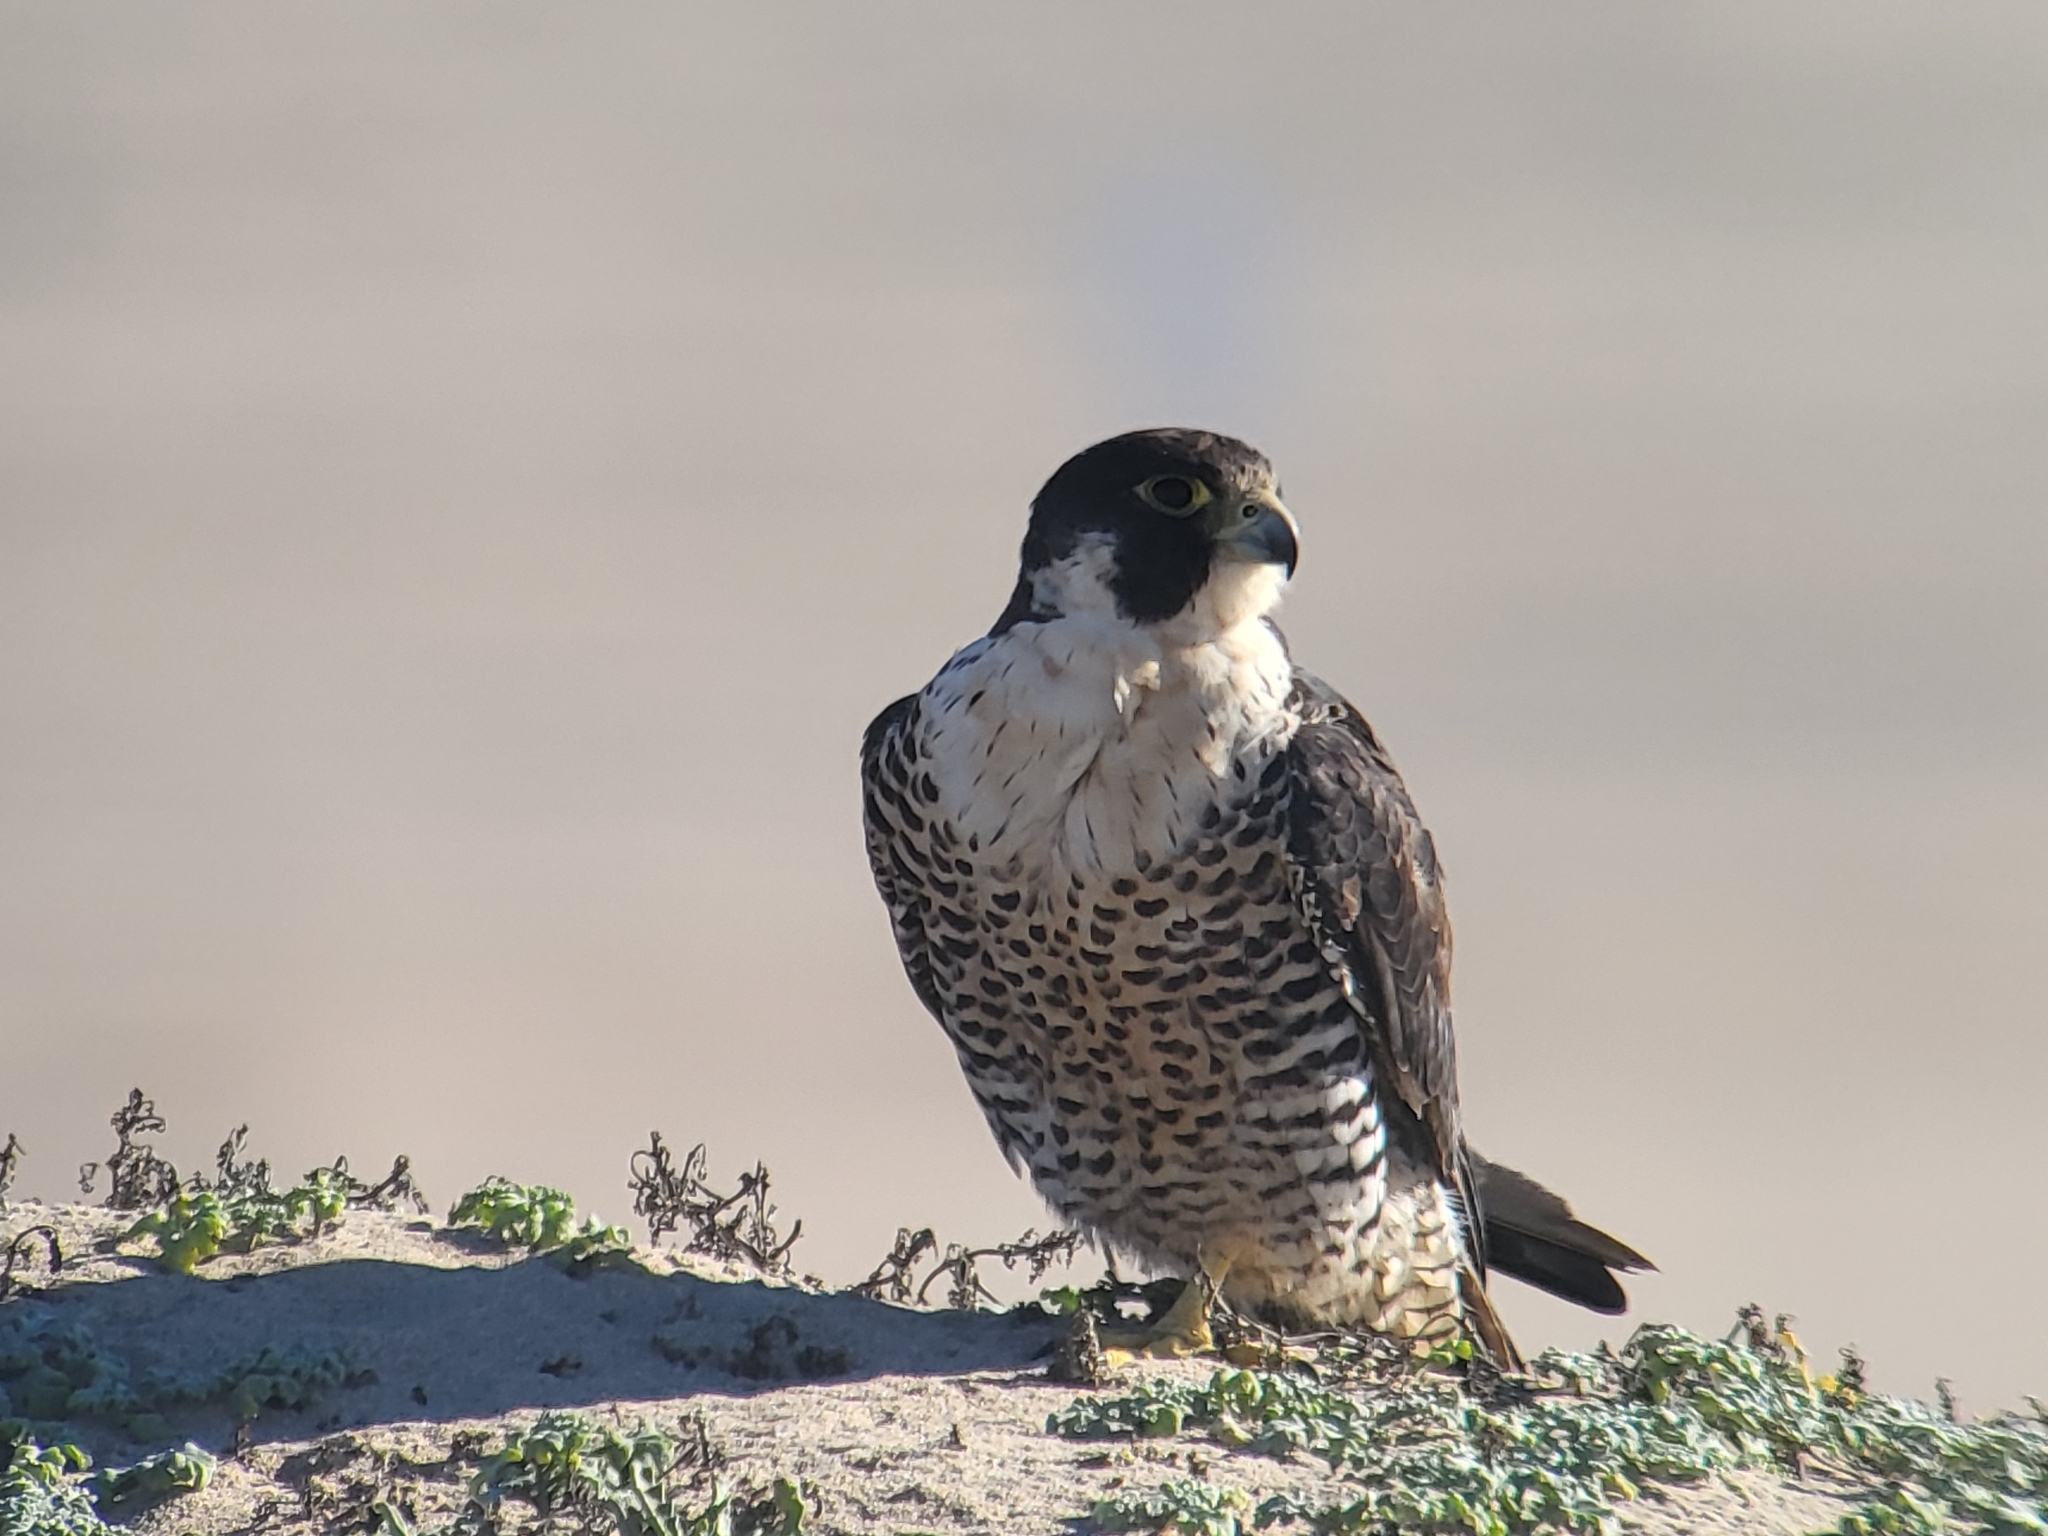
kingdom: Animalia
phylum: Chordata
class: Aves
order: Falconiformes
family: Falconidae
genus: Falco
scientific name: Falco peregrinus
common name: Peregrine falcon
